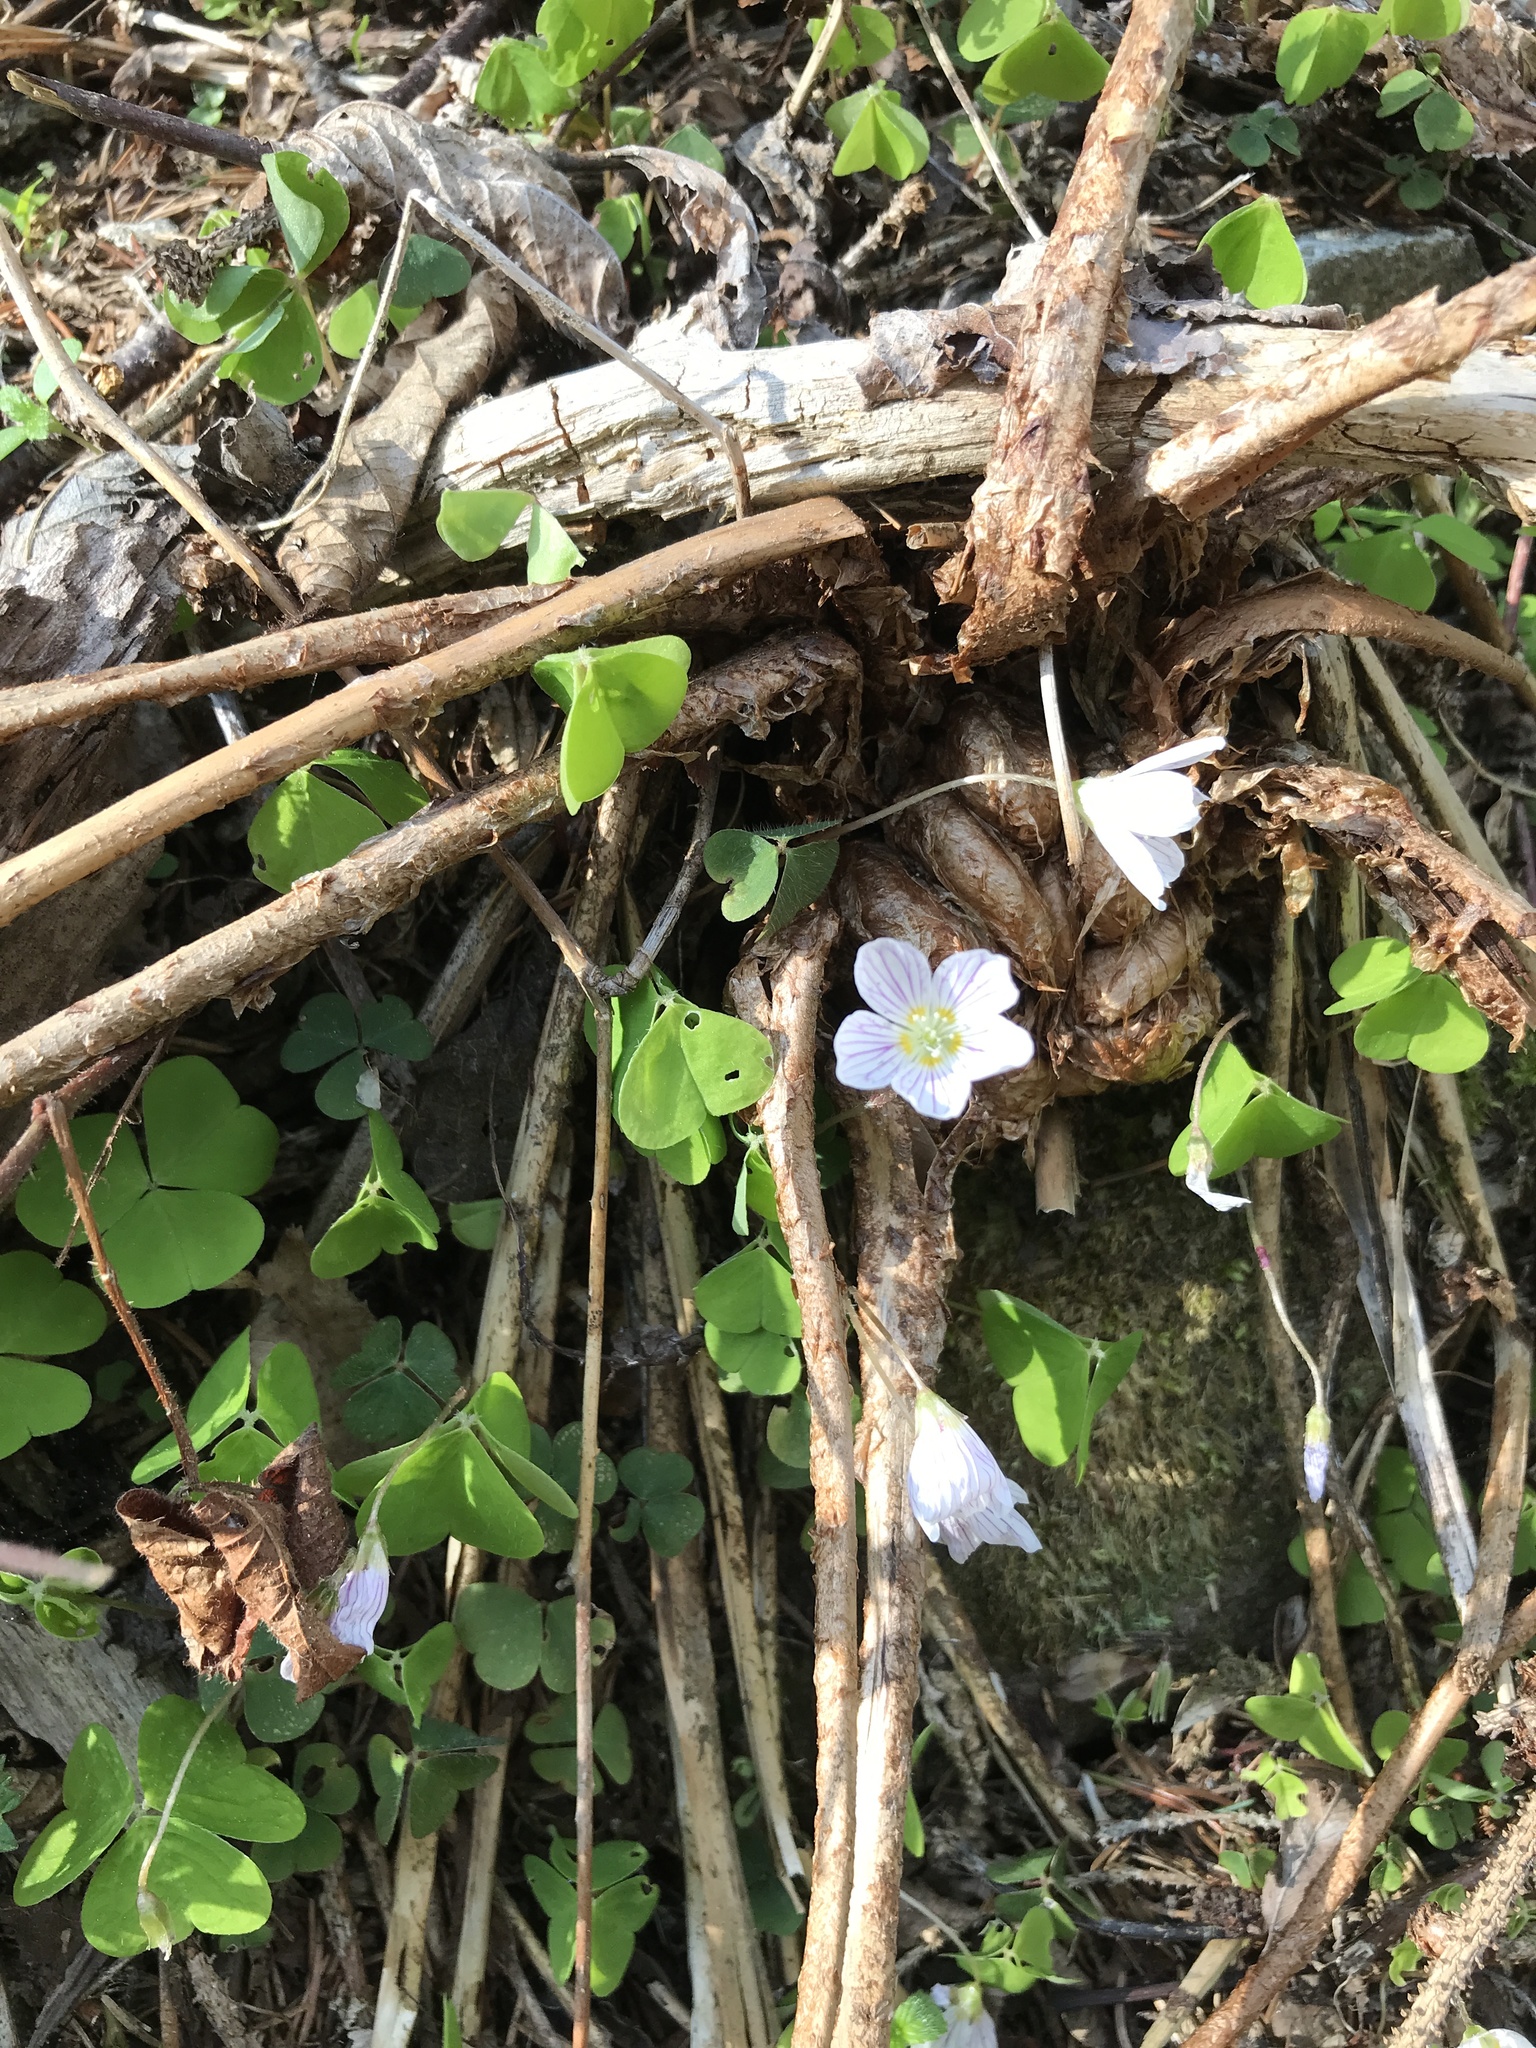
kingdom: Plantae
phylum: Tracheophyta
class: Magnoliopsida
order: Oxalidales
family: Oxalidaceae
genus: Oxalis
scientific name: Oxalis acetosella
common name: Wood-sorrel
